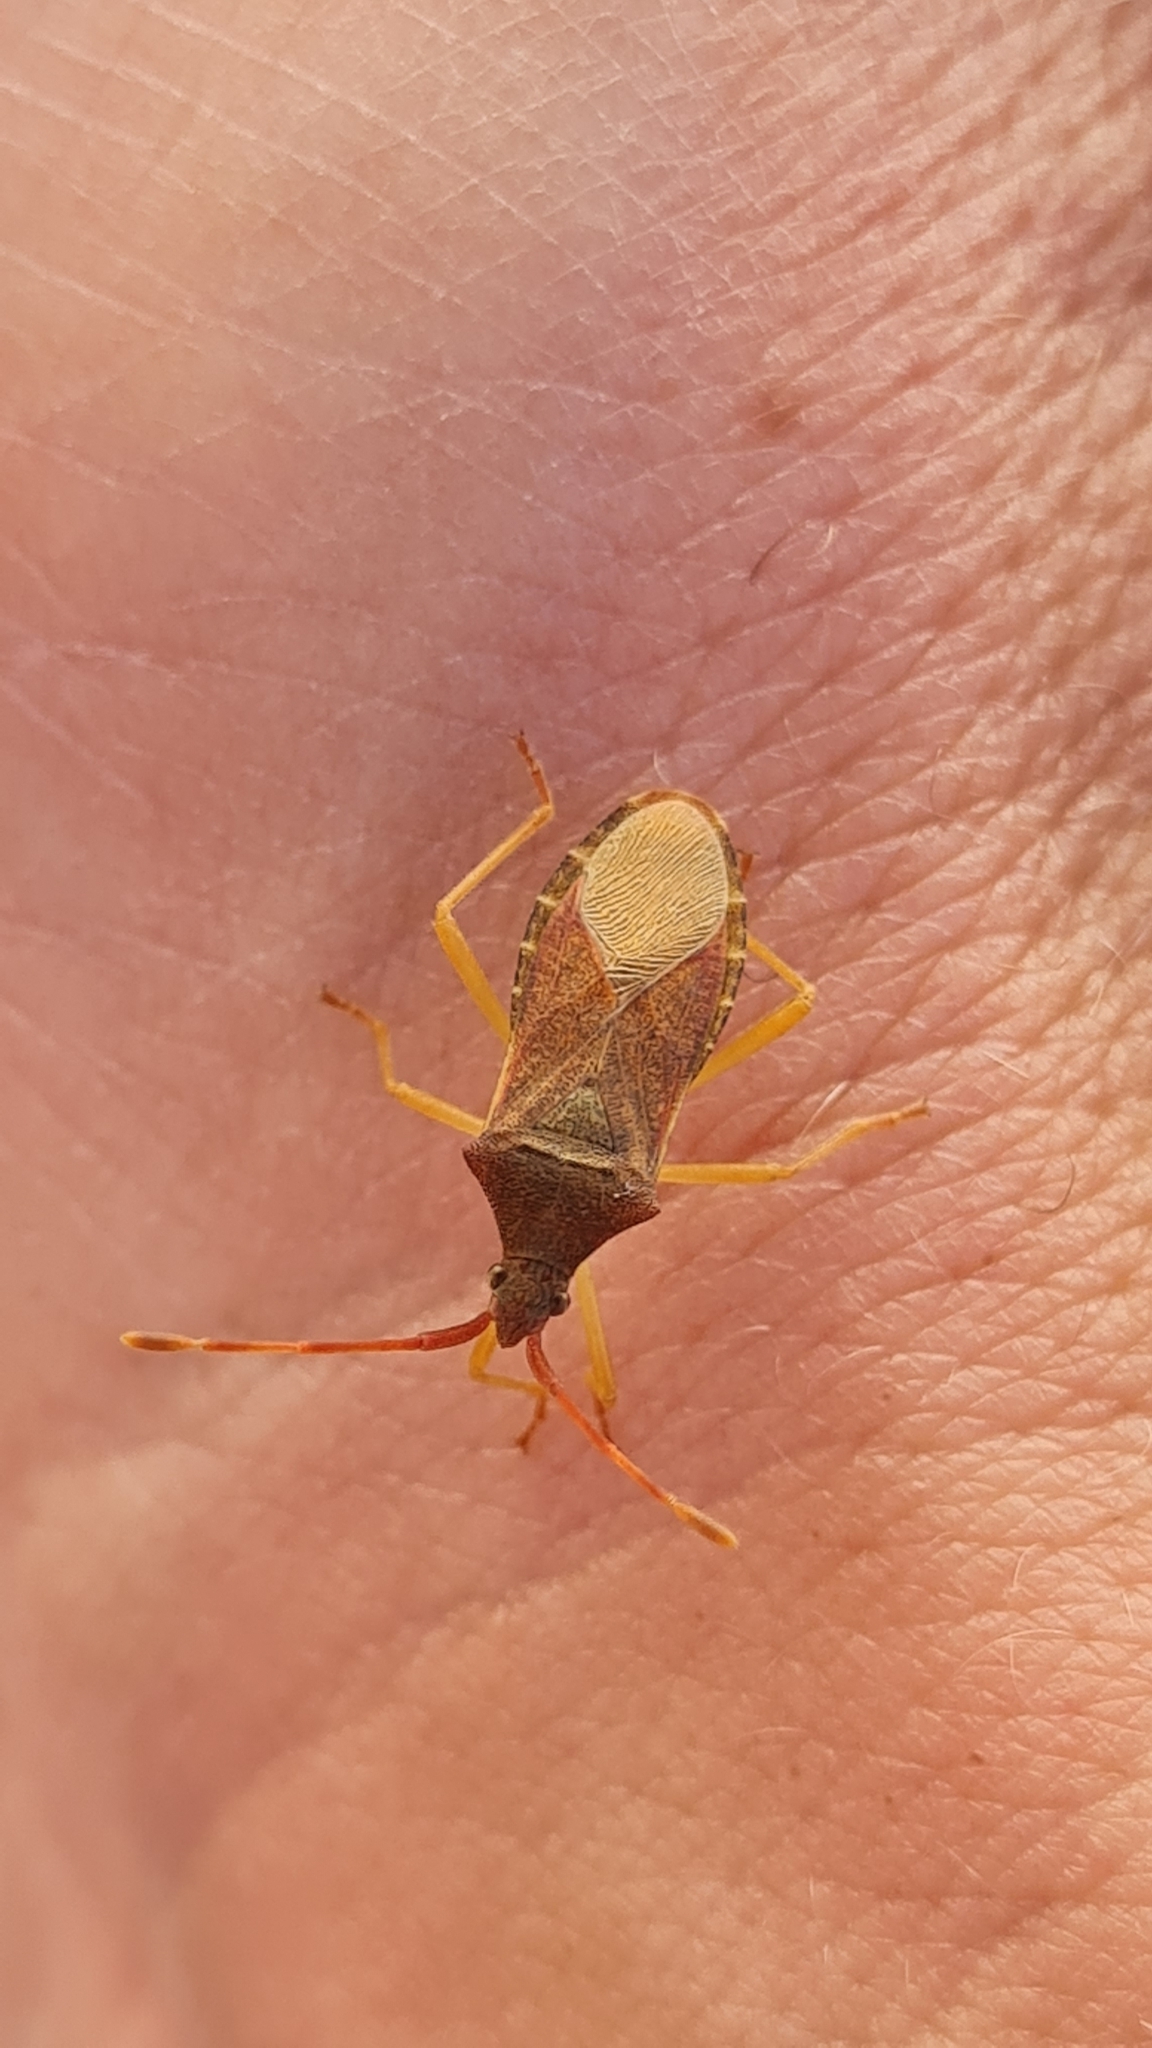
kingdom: Animalia
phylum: Arthropoda
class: Insecta
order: Hemiptera
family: Coreidae
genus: Gonocerus
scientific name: Gonocerus acuteangulatus
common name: Box bug
